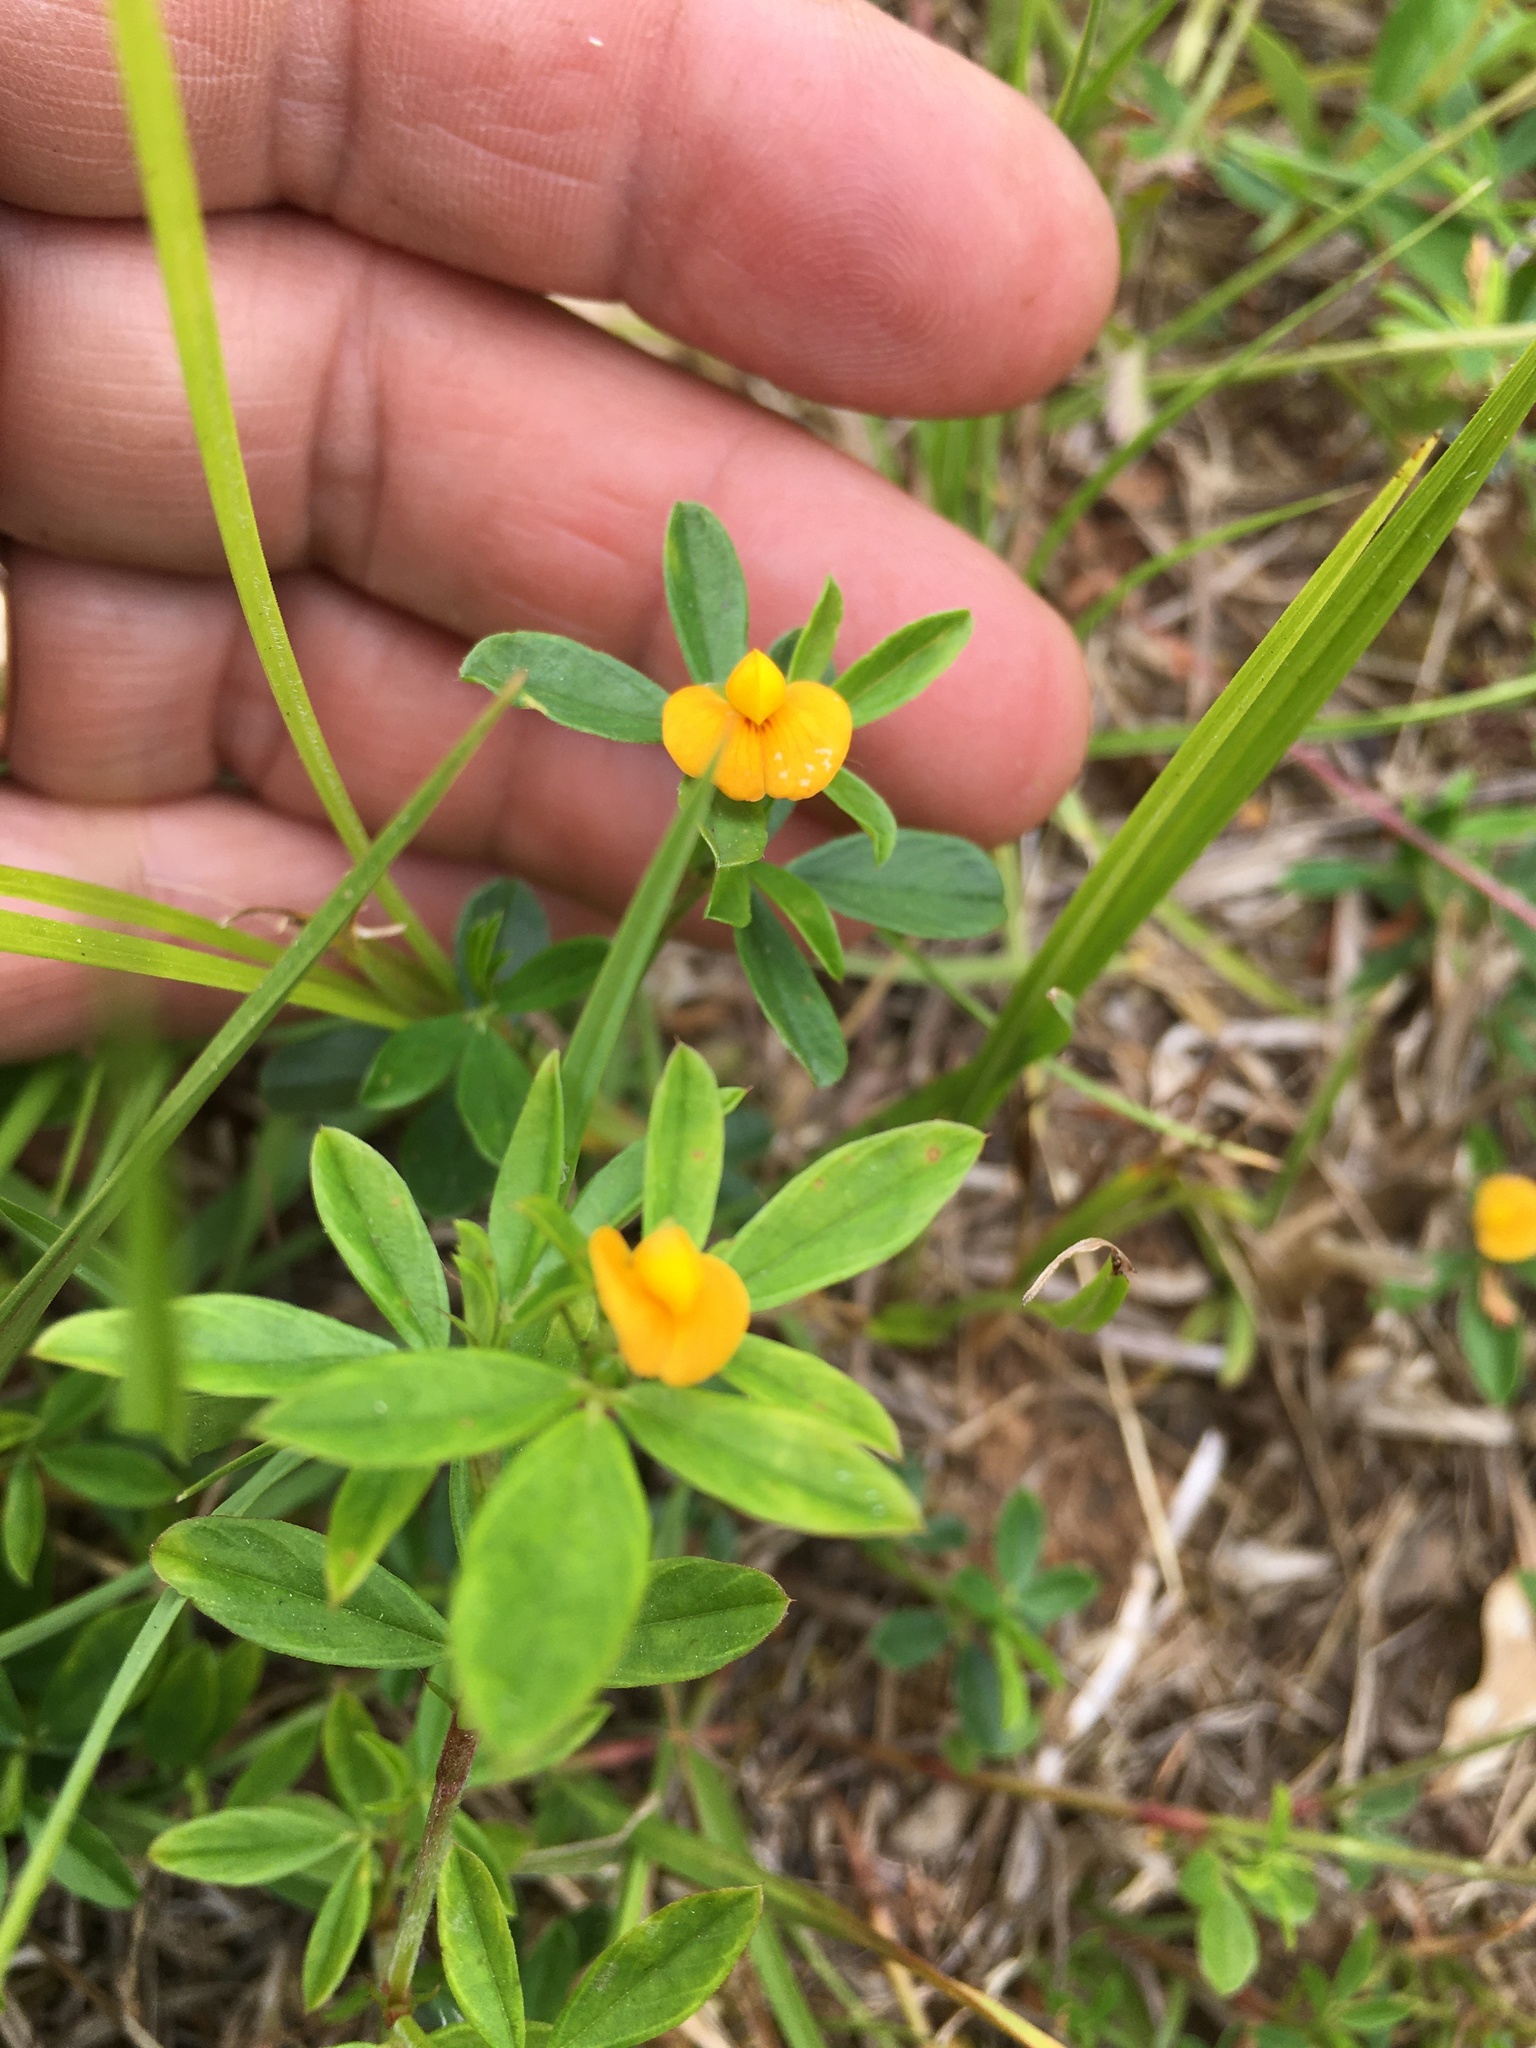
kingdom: Plantae
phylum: Tracheophyta
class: Magnoliopsida
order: Fabales
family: Fabaceae
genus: Stylosanthes
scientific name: Stylosanthes biflora
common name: Two-flower pencil-flower
